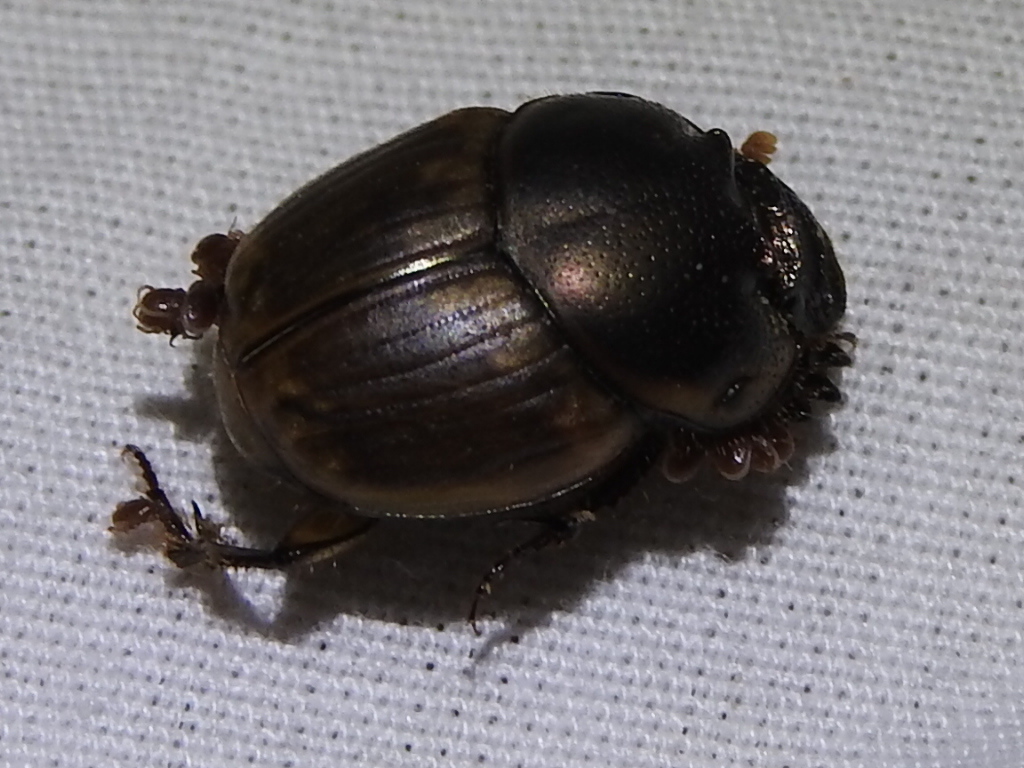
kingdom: Animalia
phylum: Arthropoda
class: Insecta
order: Coleoptera
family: Scarabaeidae
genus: Digitonthophagus
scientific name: Digitonthophagus gazella
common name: Brown dung beetle
